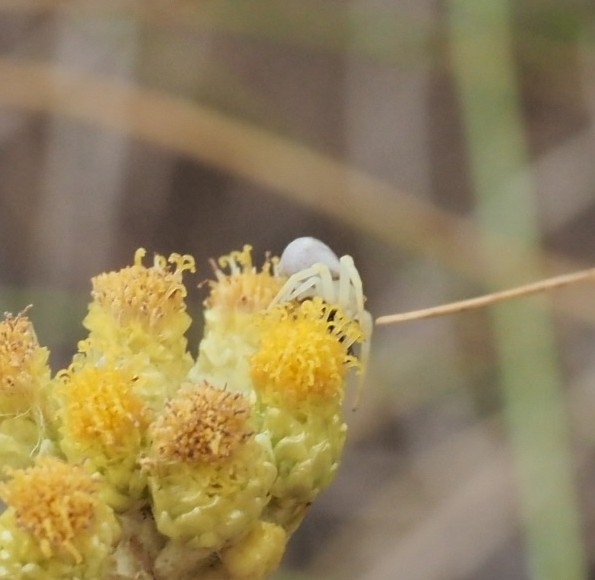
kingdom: Animalia
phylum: Arthropoda
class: Arachnida
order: Araneae
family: Thomisidae
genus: Thomisus
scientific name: Thomisus onustus
